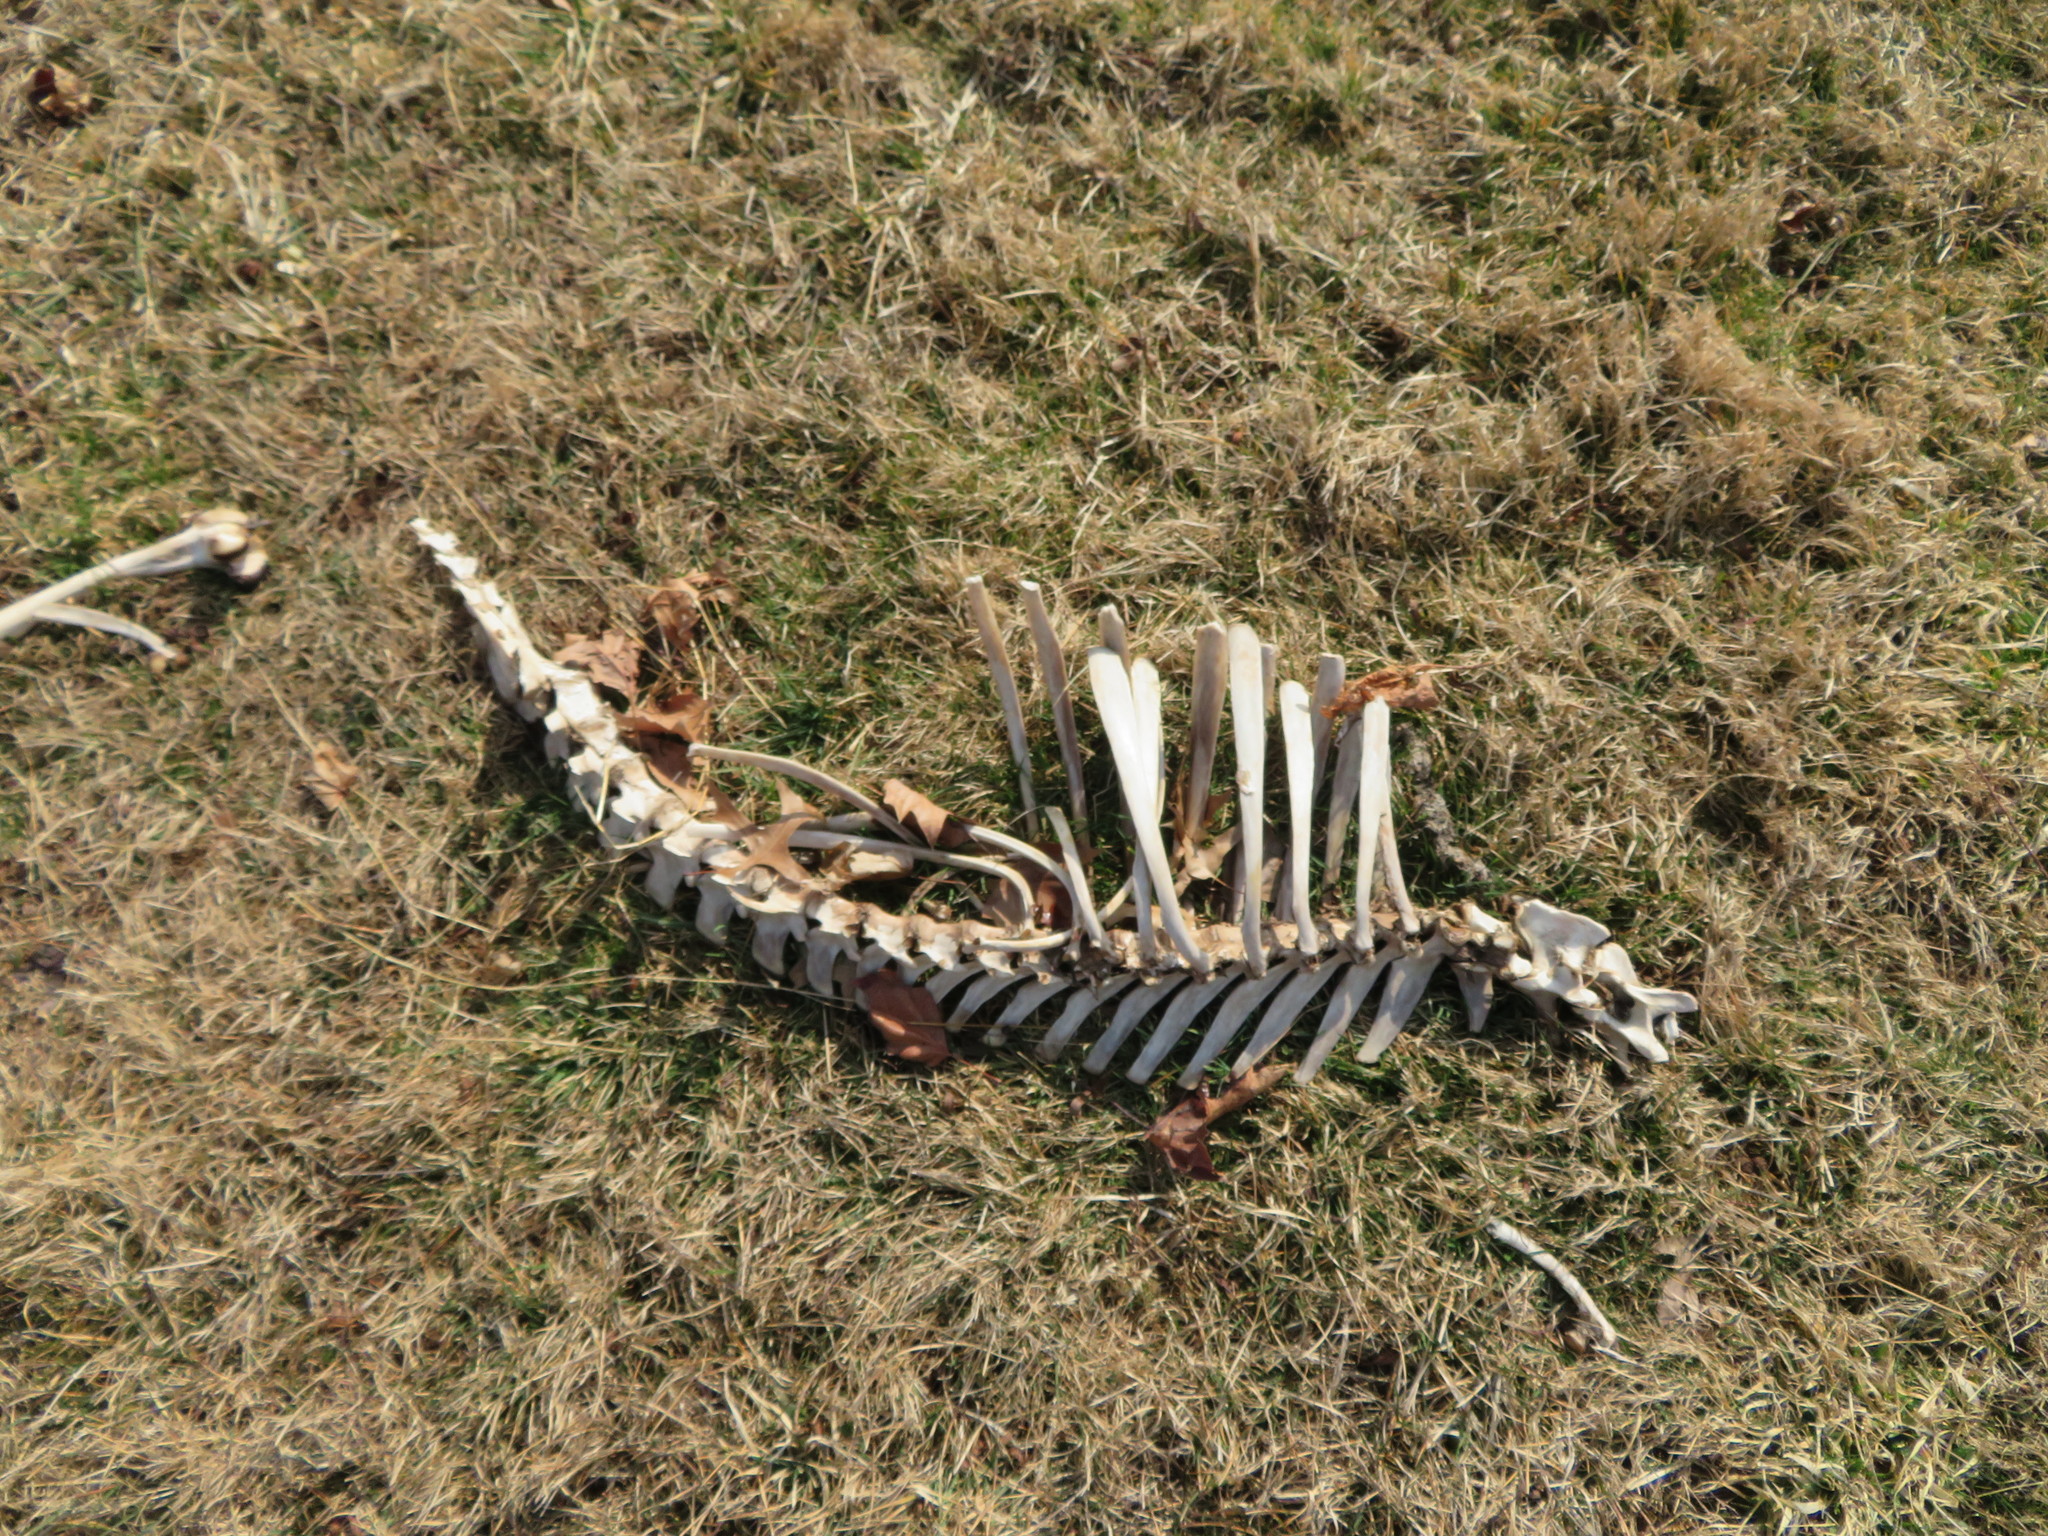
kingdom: Animalia
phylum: Chordata
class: Mammalia
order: Artiodactyla
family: Cervidae
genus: Odocoileus
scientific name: Odocoileus virginianus
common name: White-tailed deer
